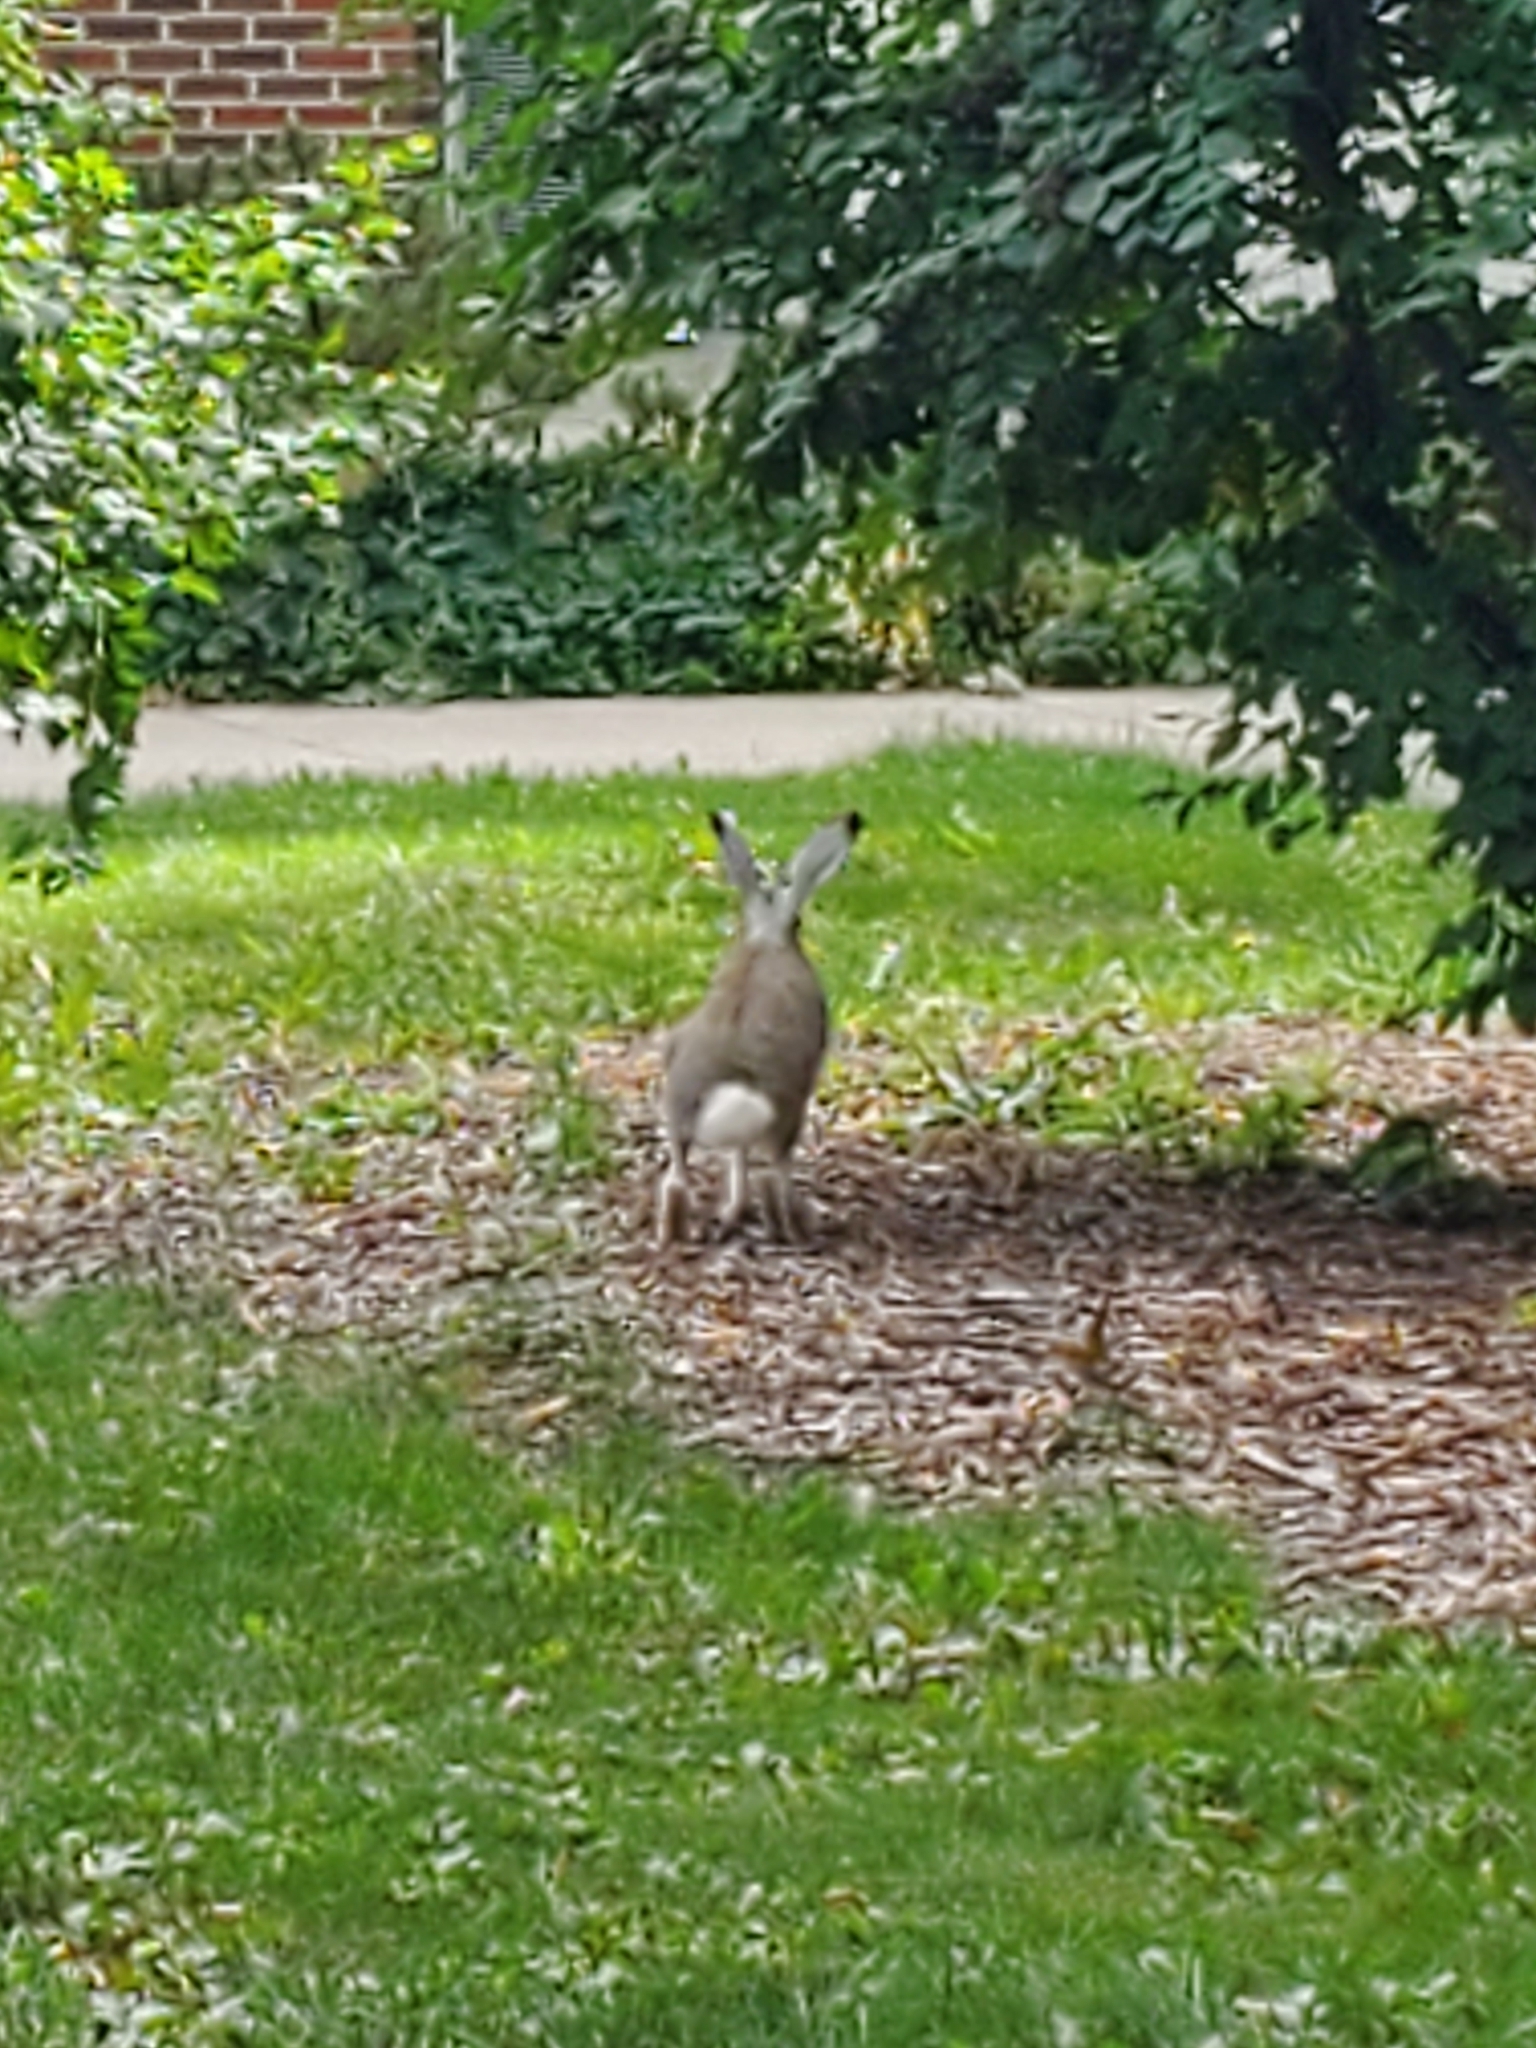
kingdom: Animalia
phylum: Chordata
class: Mammalia
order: Lagomorpha
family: Leporidae
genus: Lepus
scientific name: Lepus townsendii
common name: White-tailed jackrabbit
